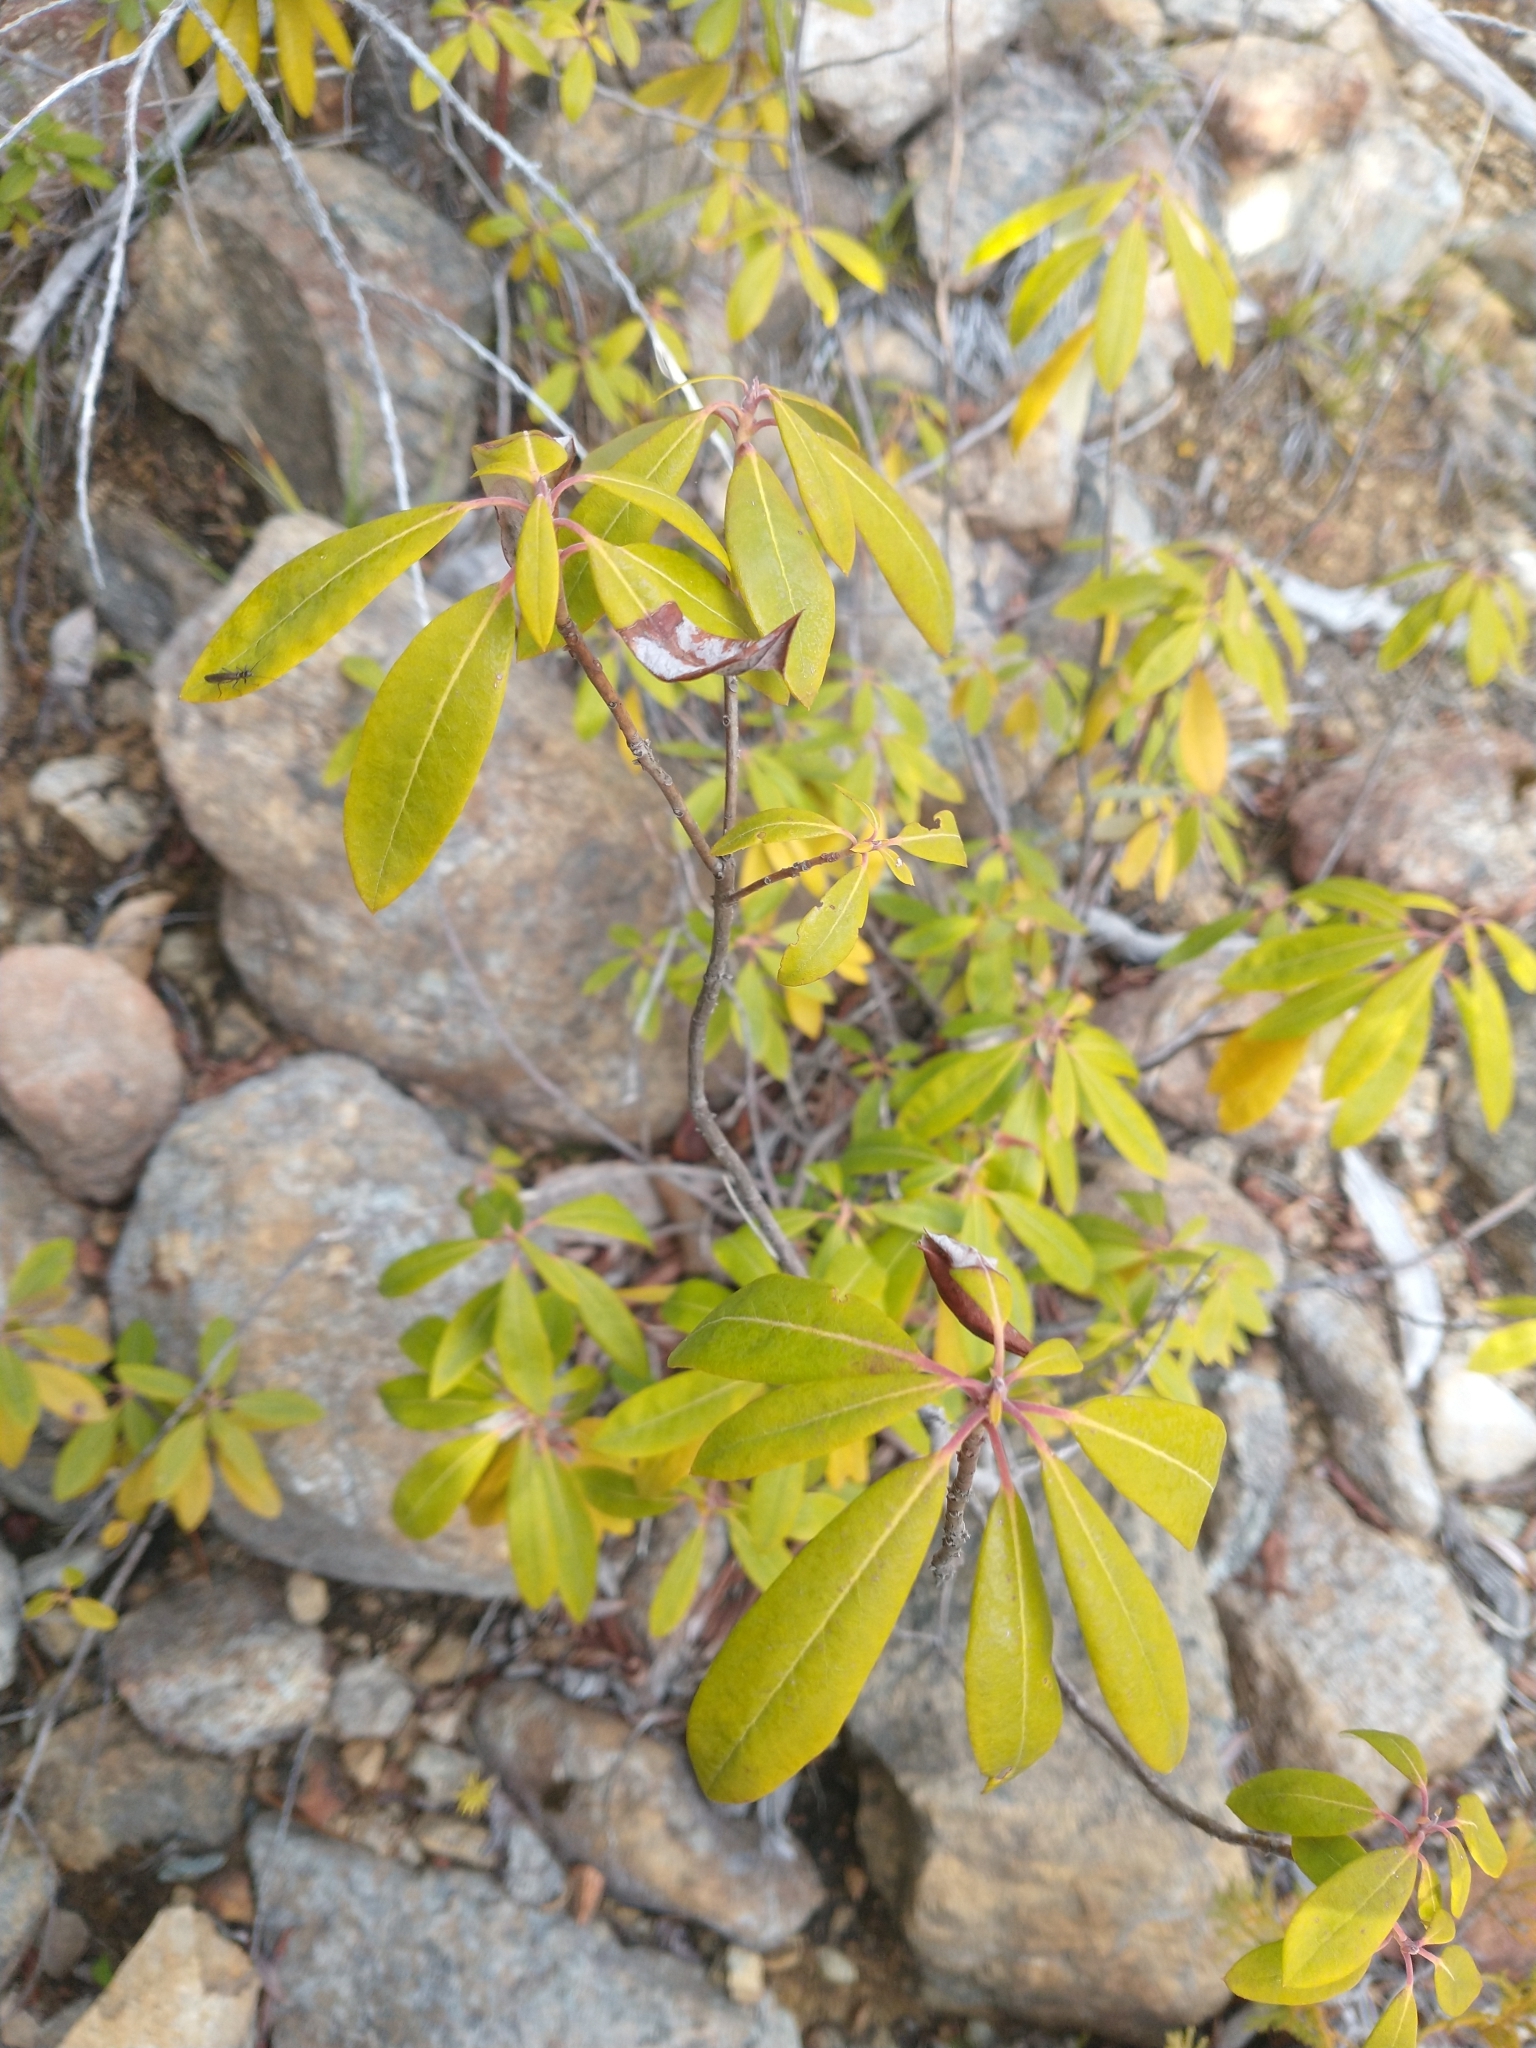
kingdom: Plantae
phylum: Tracheophyta
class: Magnoliopsida
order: Ericales
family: Ericaceae
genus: Rhododendron
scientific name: Rhododendron columbianum
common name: Western labrador tea
